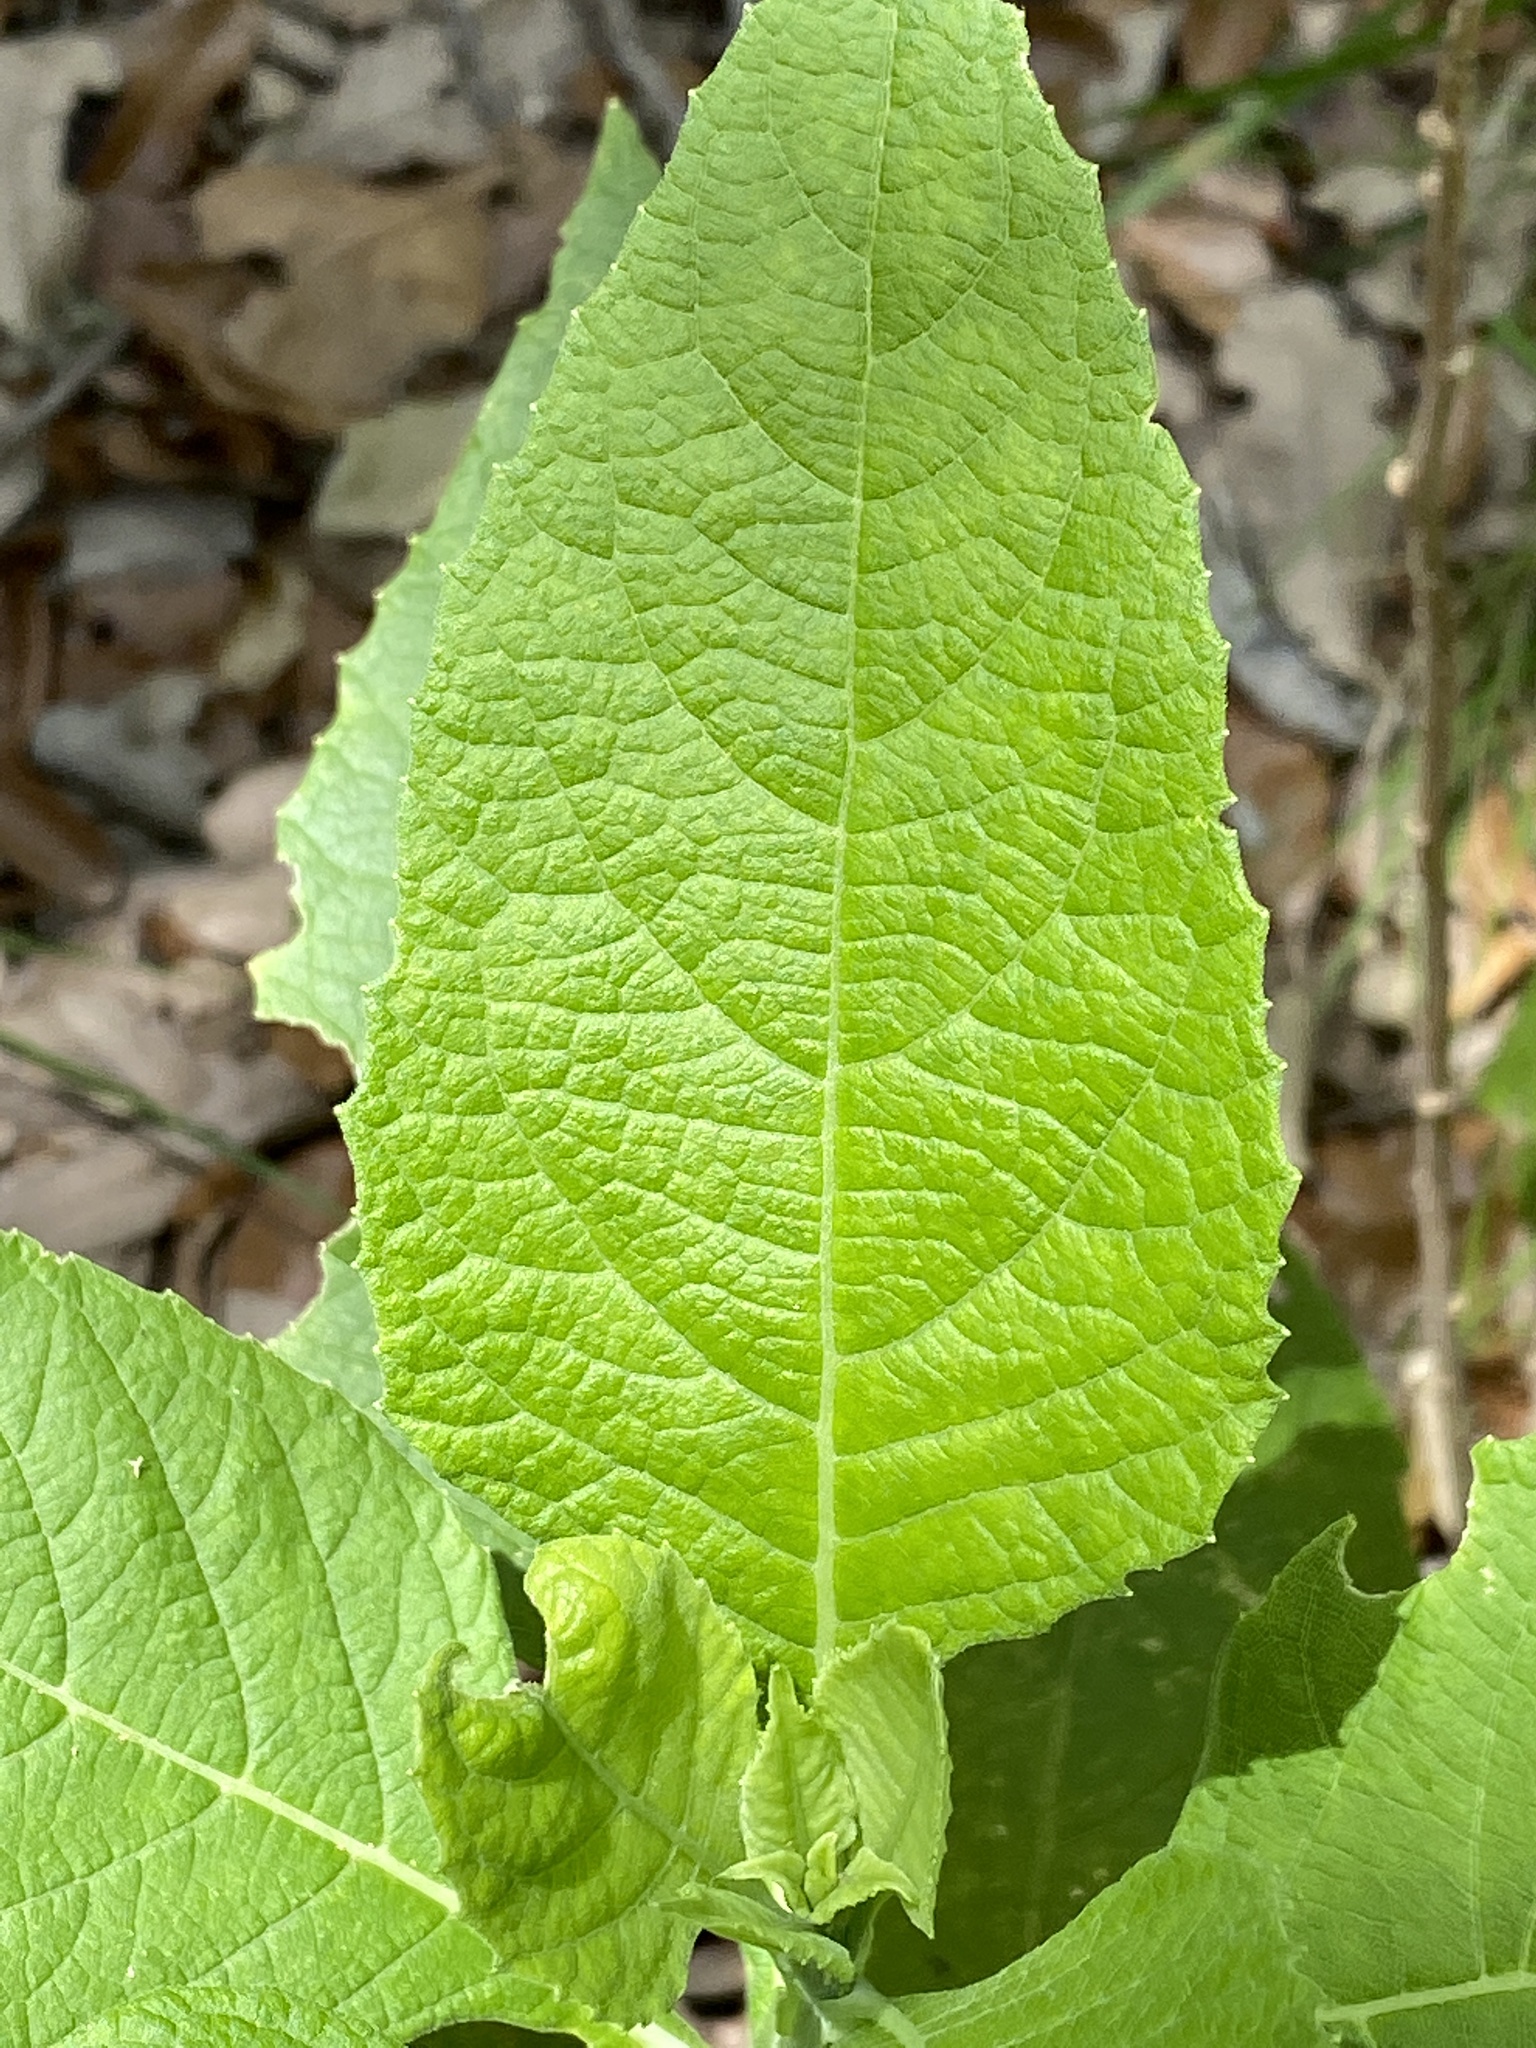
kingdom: Plantae
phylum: Tracheophyta
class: Magnoliopsida
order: Asterales
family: Asteraceae
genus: Verbesina
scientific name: Verbesina virginica
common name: Frostweed
